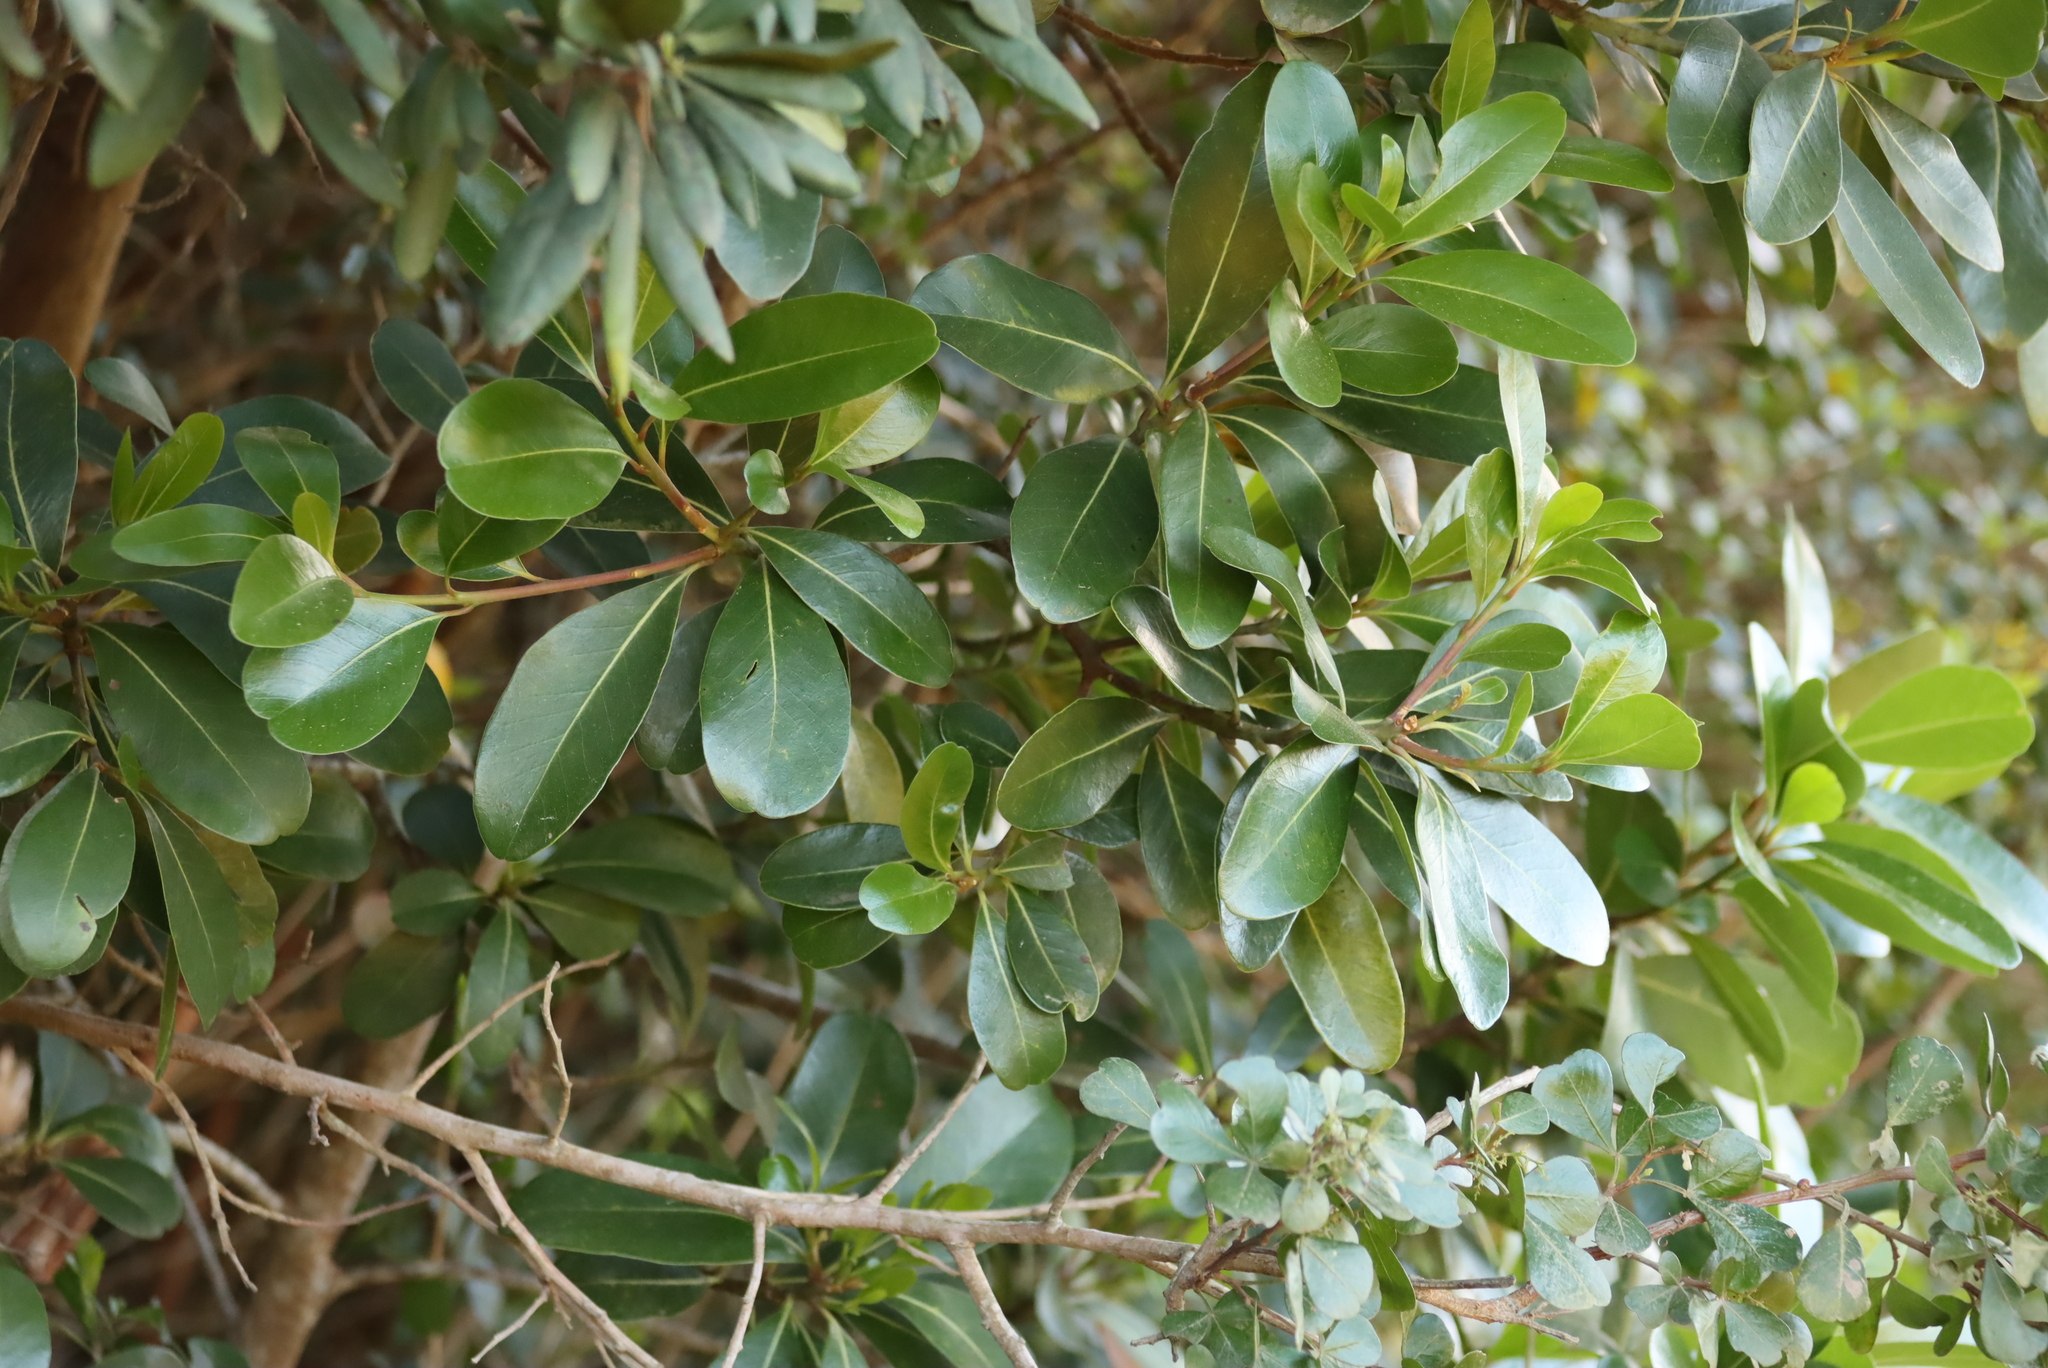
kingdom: Plantae
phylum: Tracheophyta
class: Magnoliopsida
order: Ericales
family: Sapotaceae
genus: Sideroxylon
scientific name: Sideroxylon inerme
